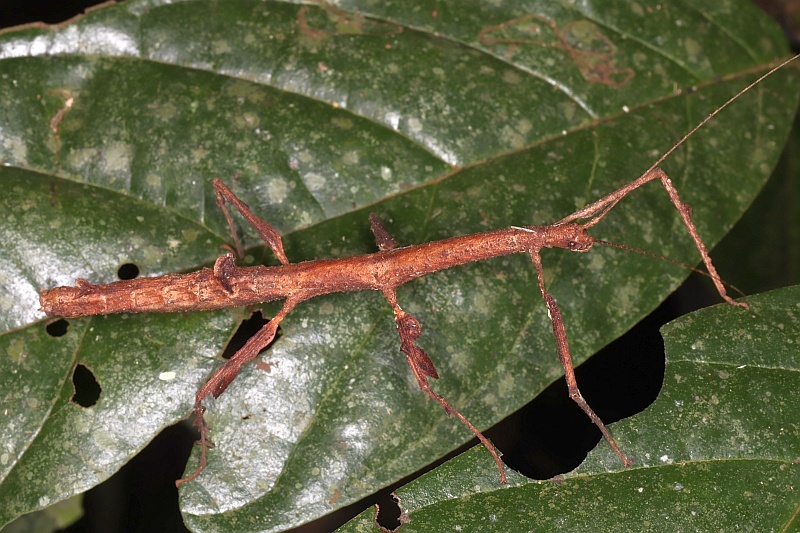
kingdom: Animalia
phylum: Arthropoda
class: Insecta
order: Phasmida
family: Diapheromeridae
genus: Lobolibethra
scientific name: Lobolibethra panguana
